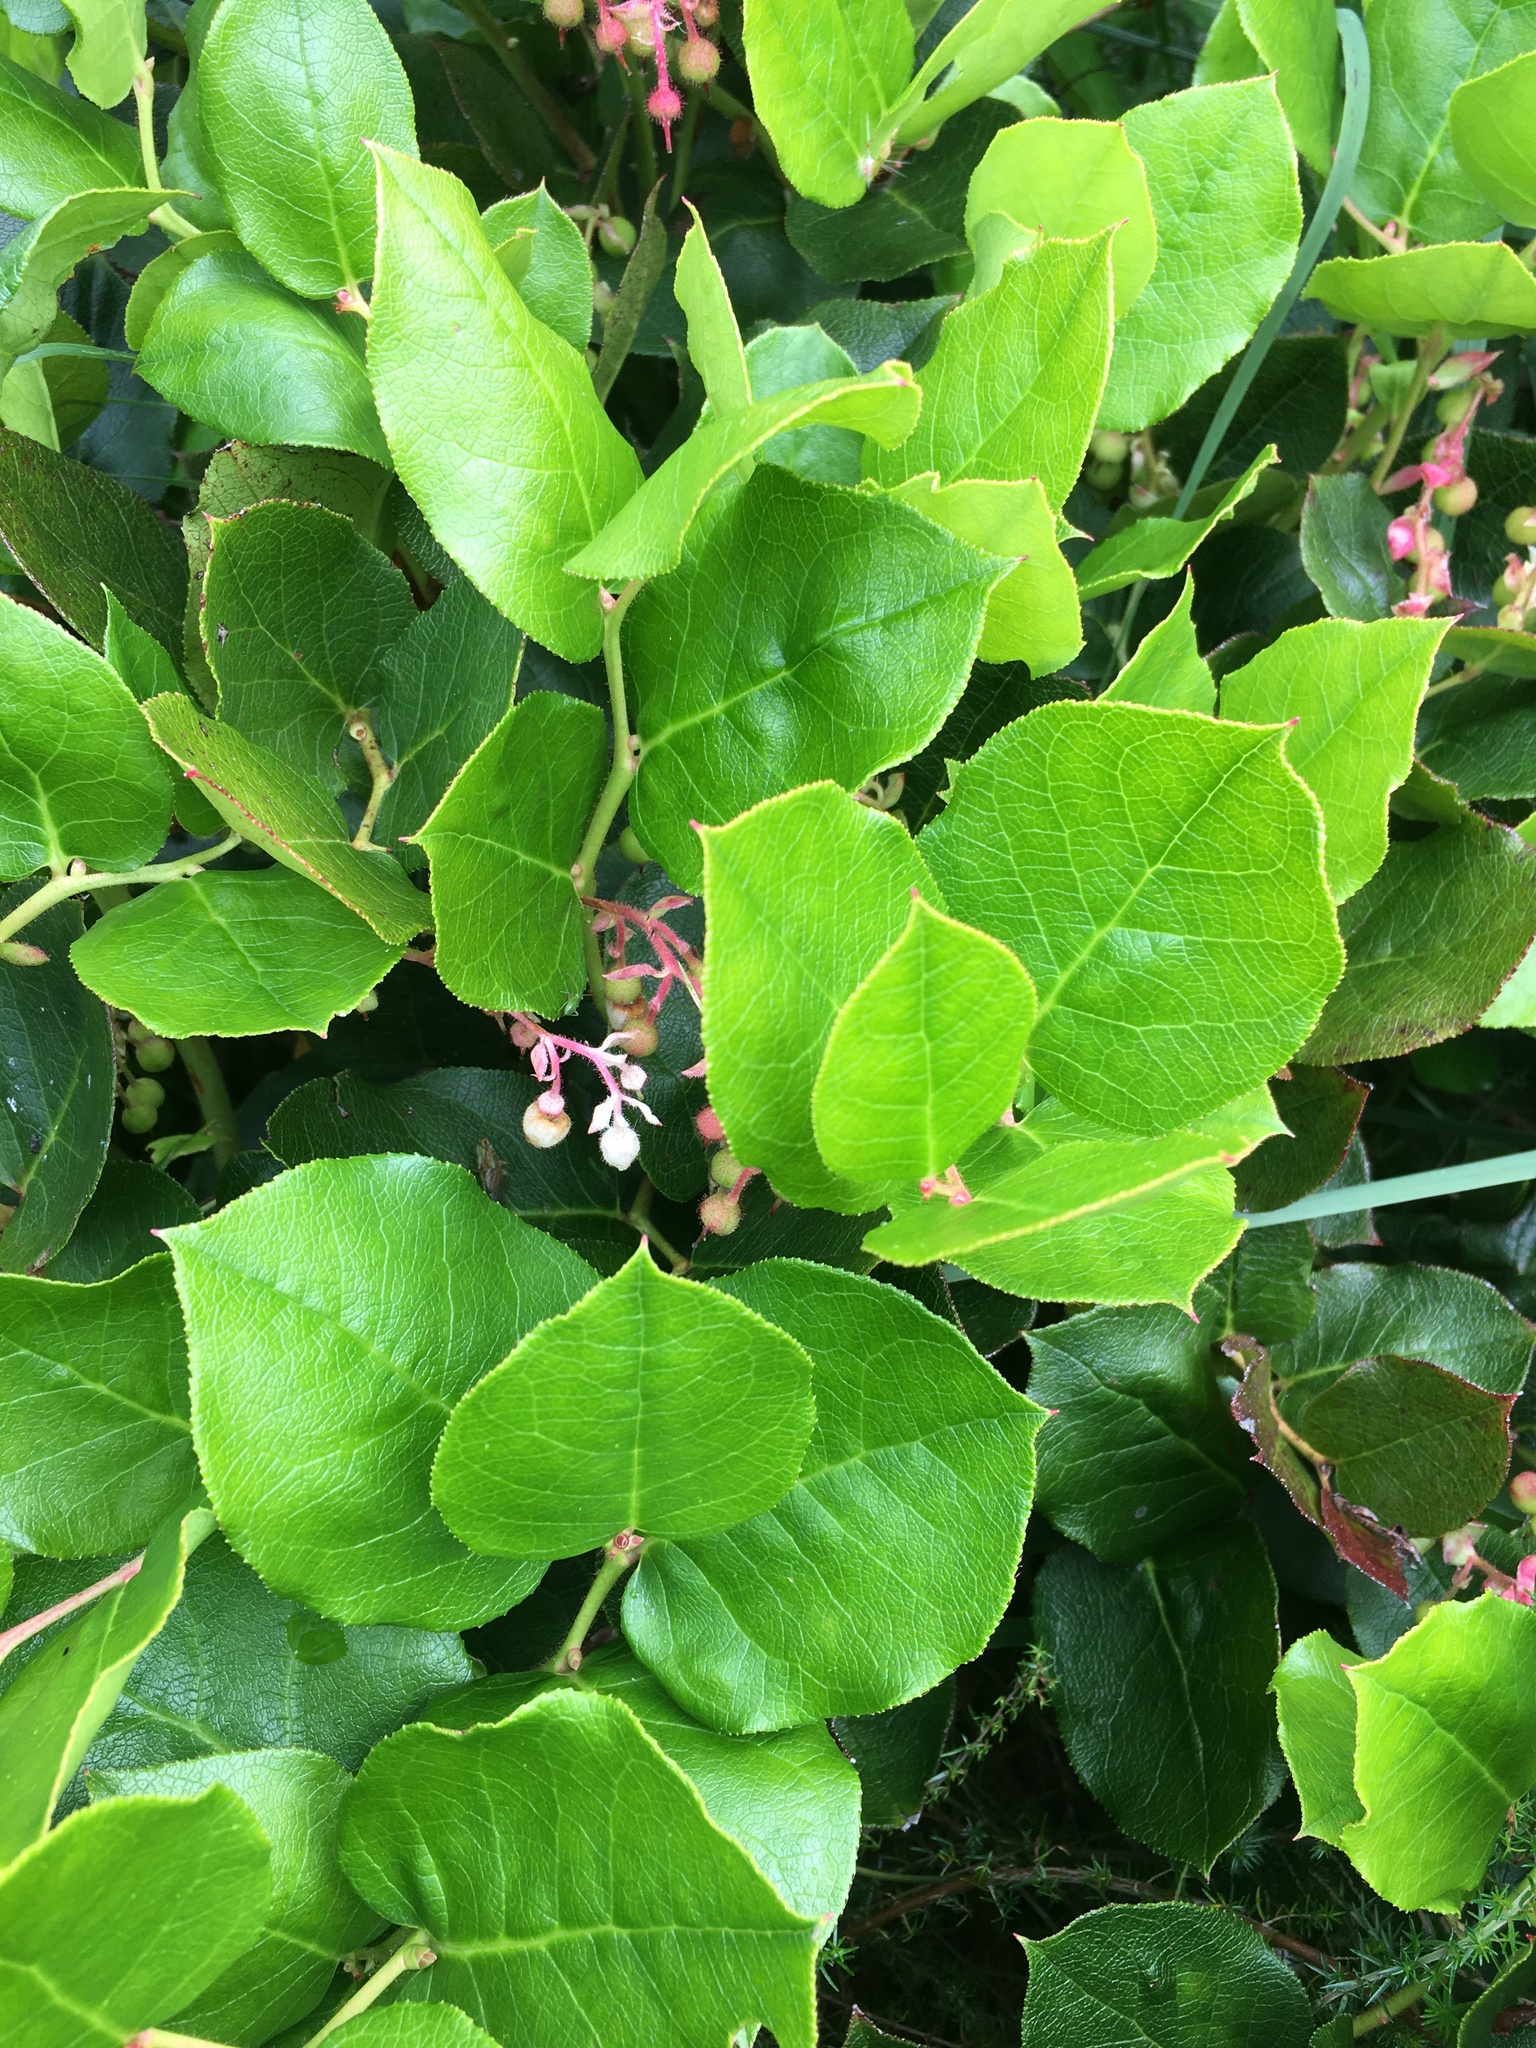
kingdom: Plantae
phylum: Tracheophyta
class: Magnoliopsida
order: Ericales
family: Ericaceae
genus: Gaultheria
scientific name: Gaultheria shallon
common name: Shallon
